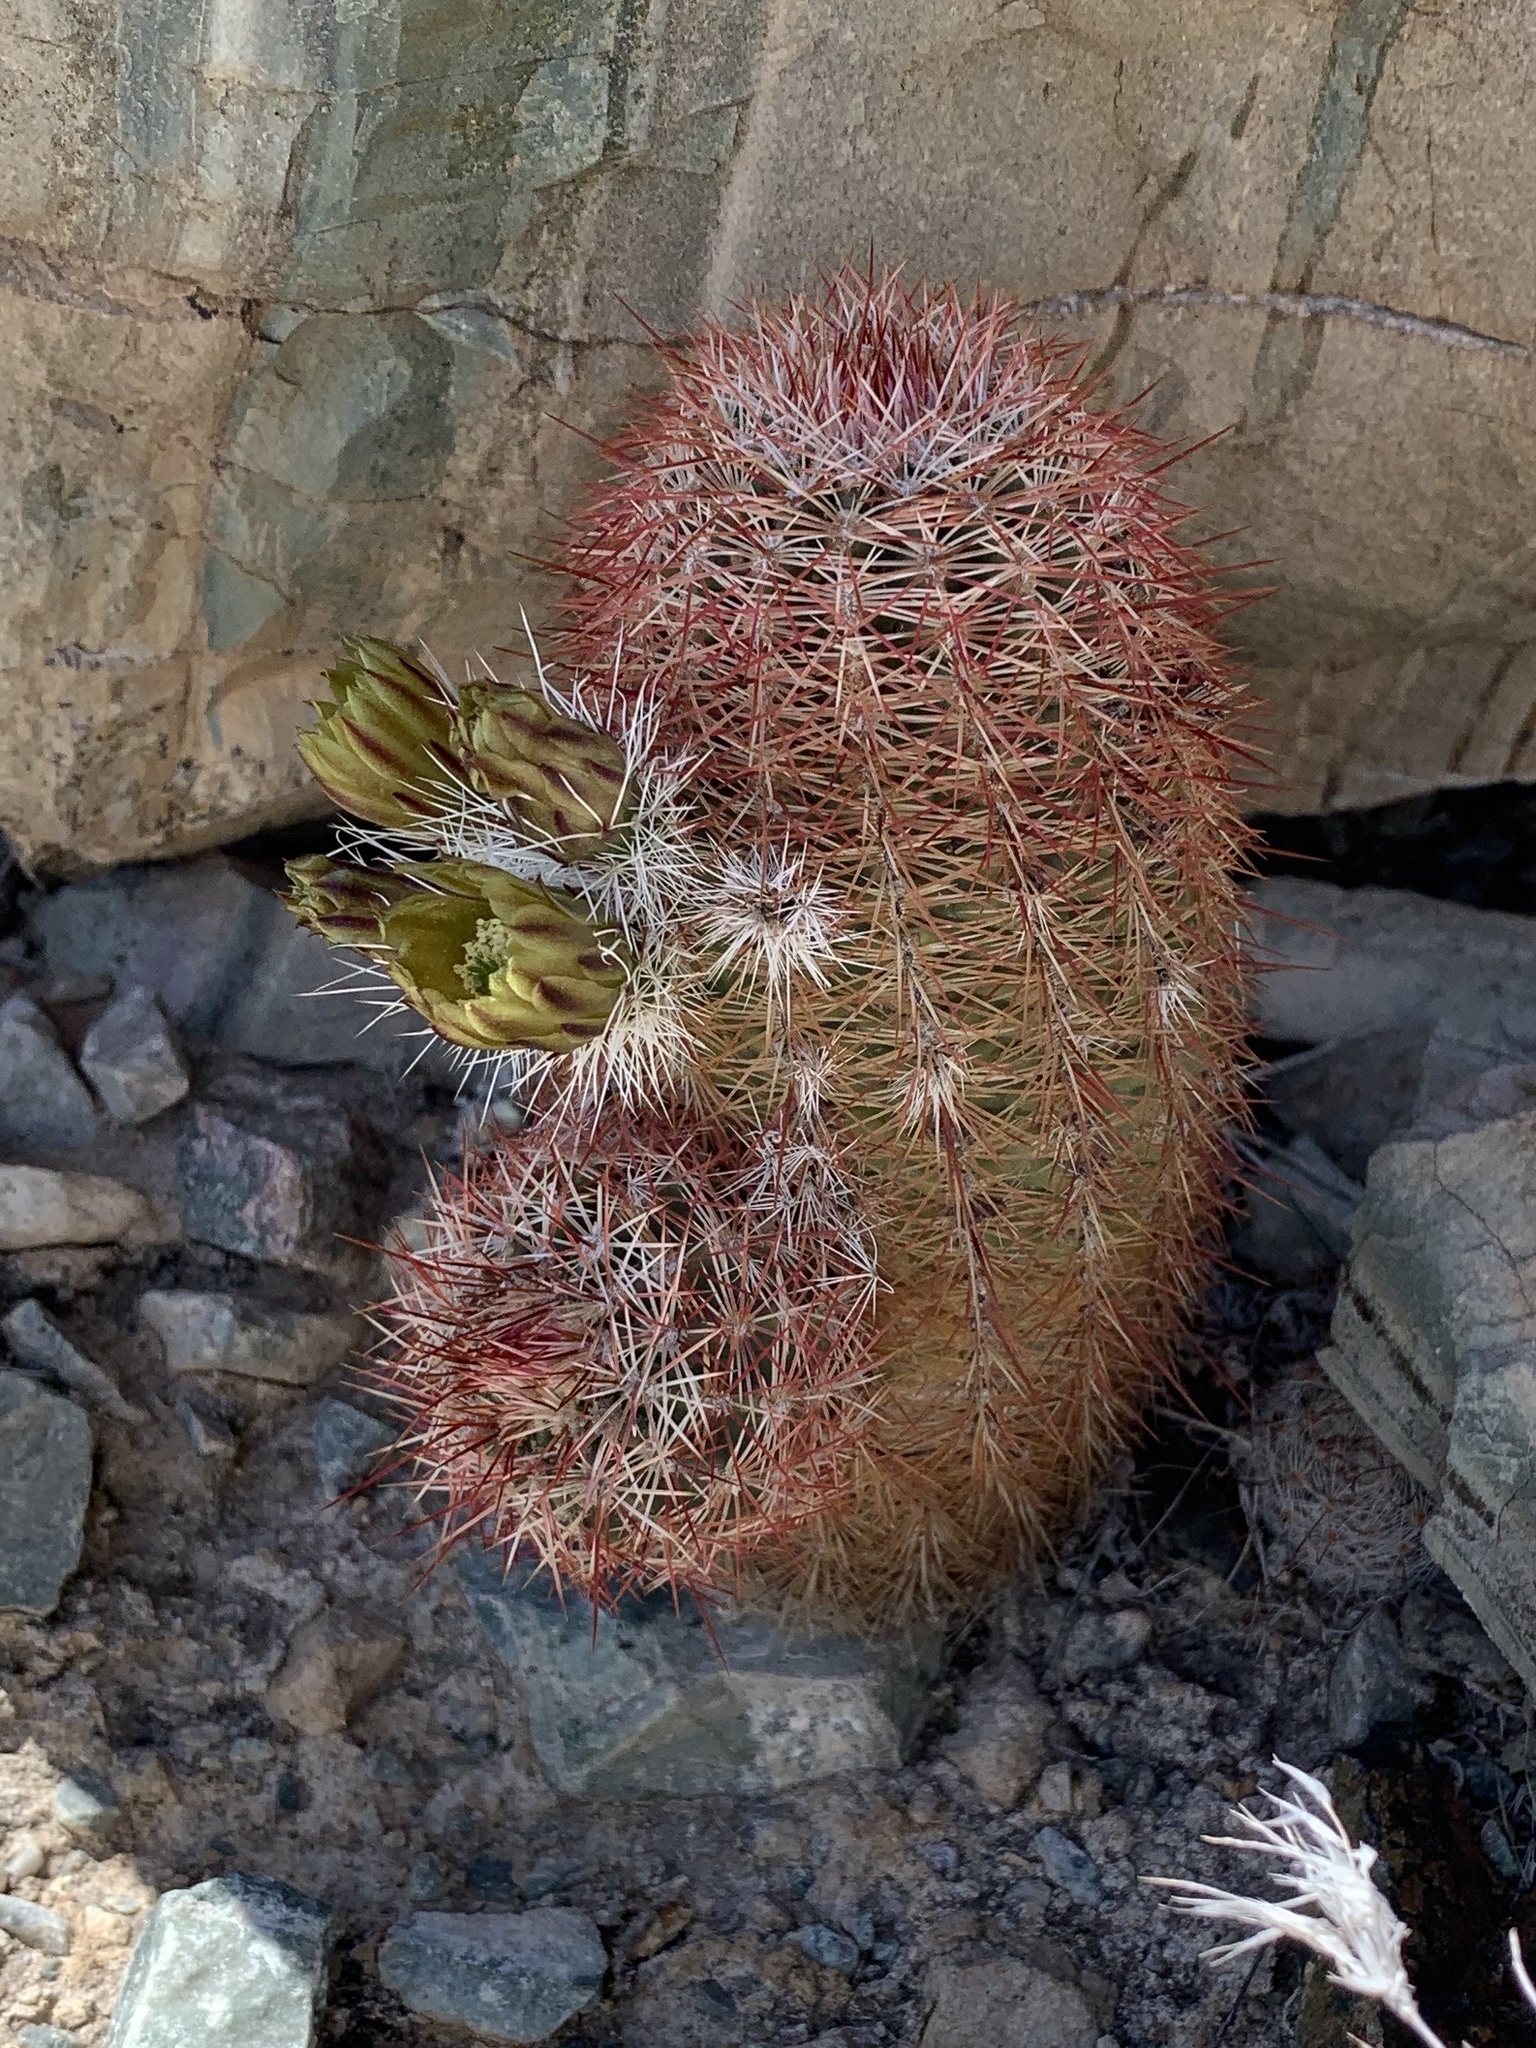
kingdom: Plantae
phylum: Tracheophyta
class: Magnoliopsida
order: Caryophyllales
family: Cactaceae
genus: Echinocereus
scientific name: Echinocereus viridiflorus
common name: Nylon hedgehog cactus
